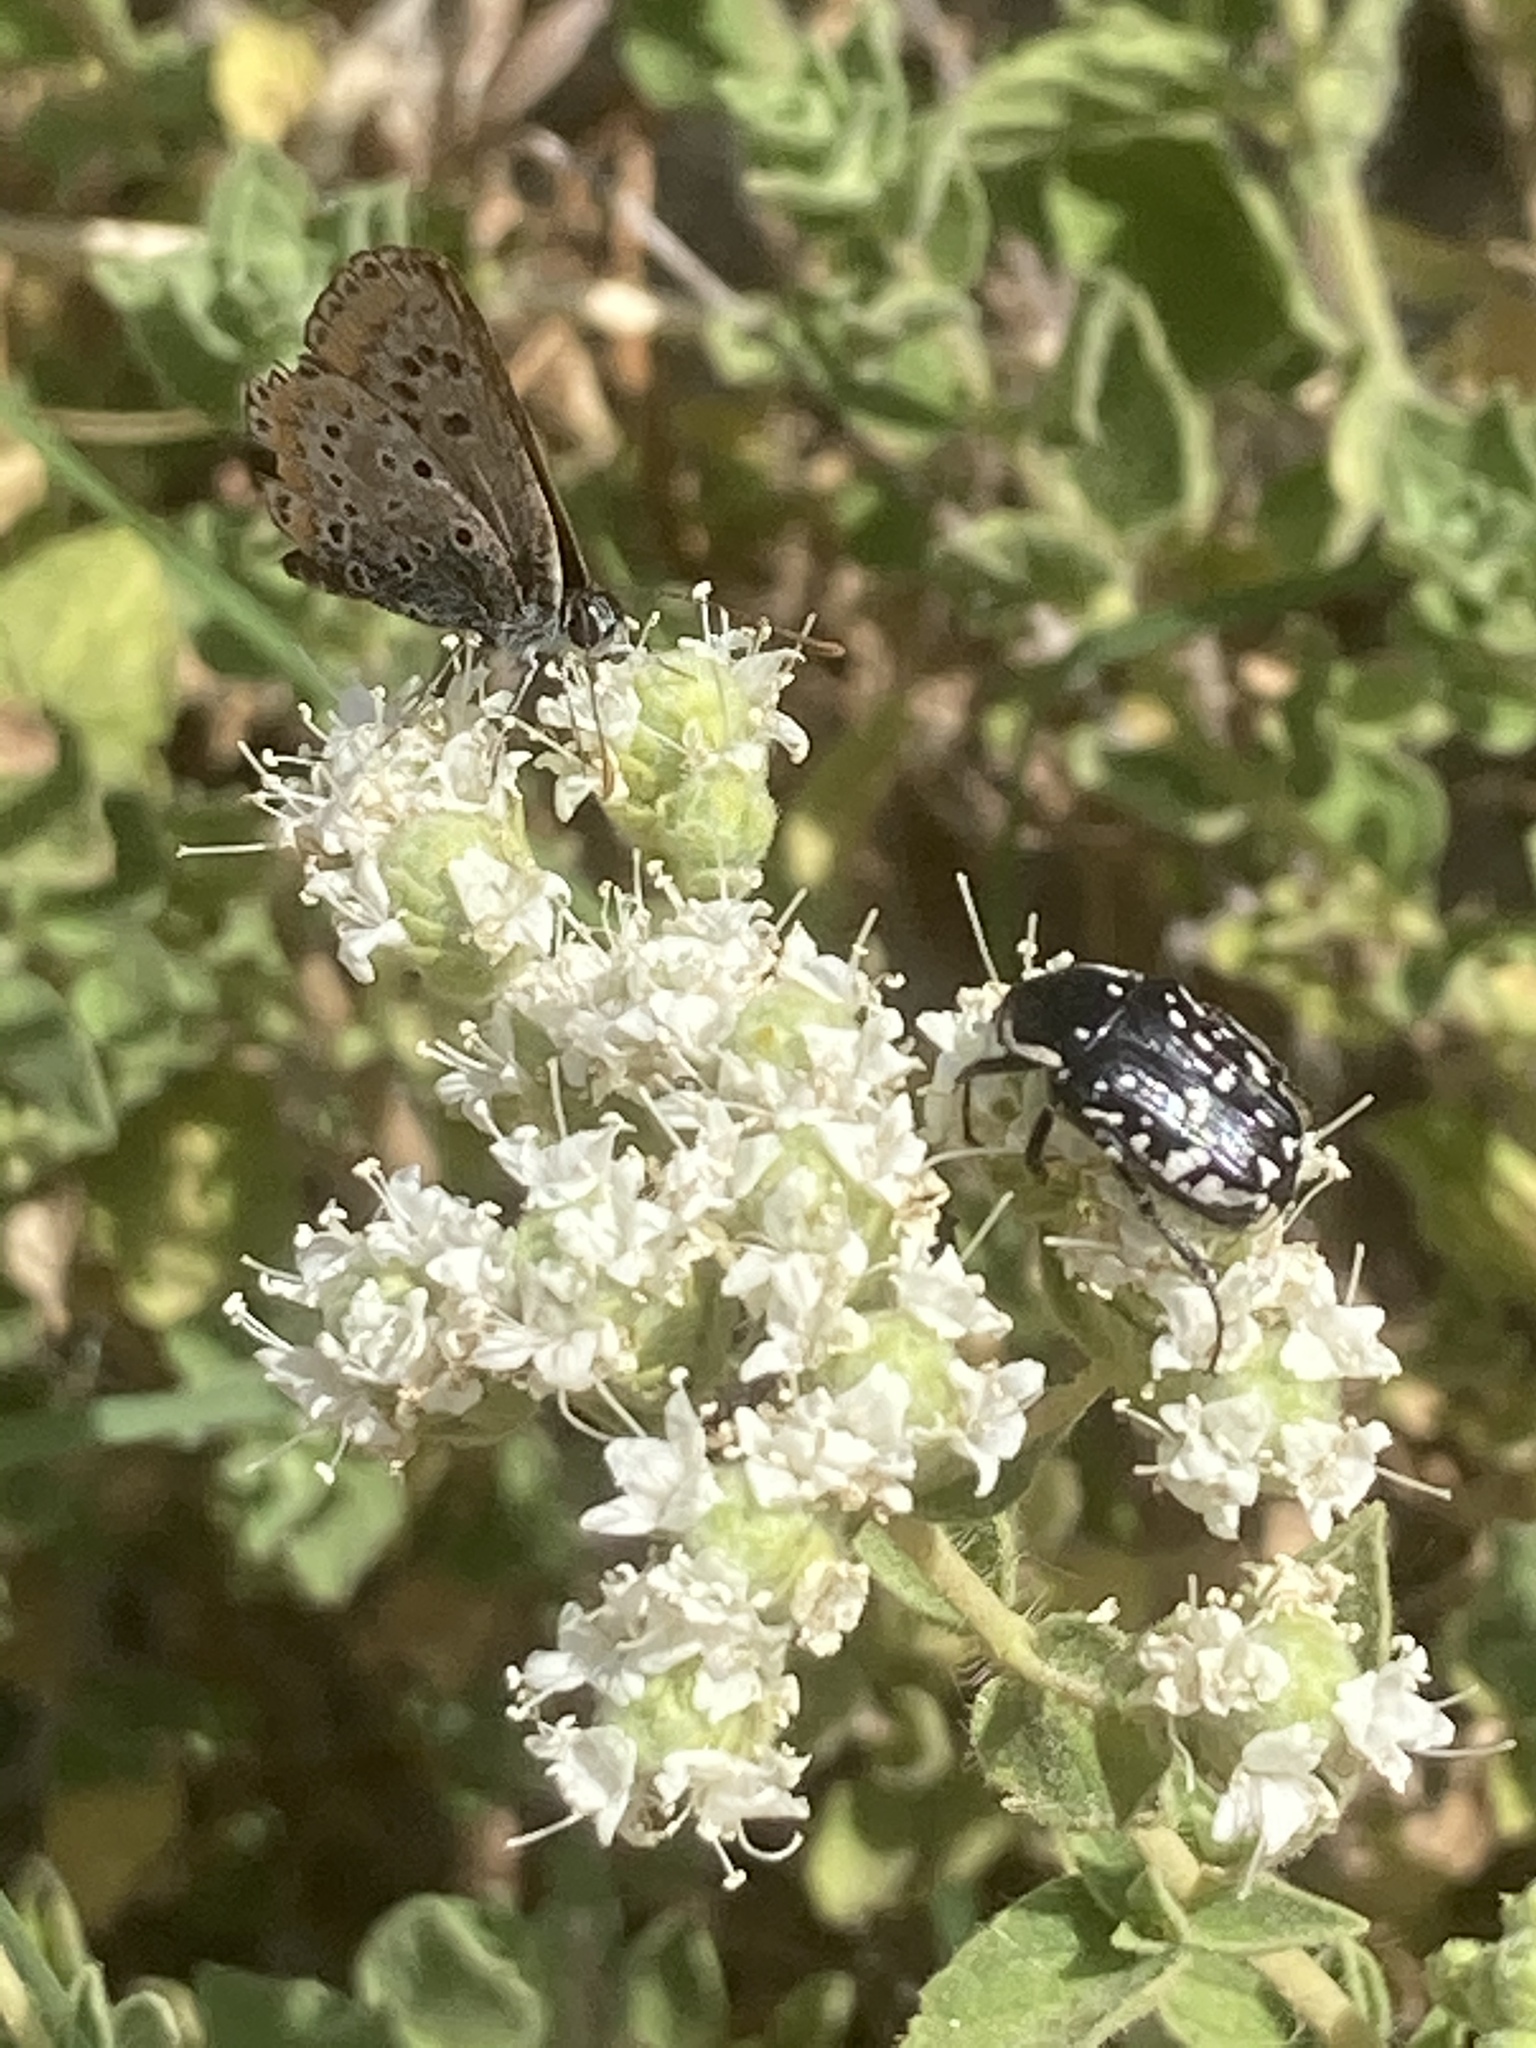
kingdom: Animalia
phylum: Arthropoda
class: Insecta
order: Coleoptera
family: Scarabaeidae
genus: Oxythyrea
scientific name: Oxythyrea cinctella
